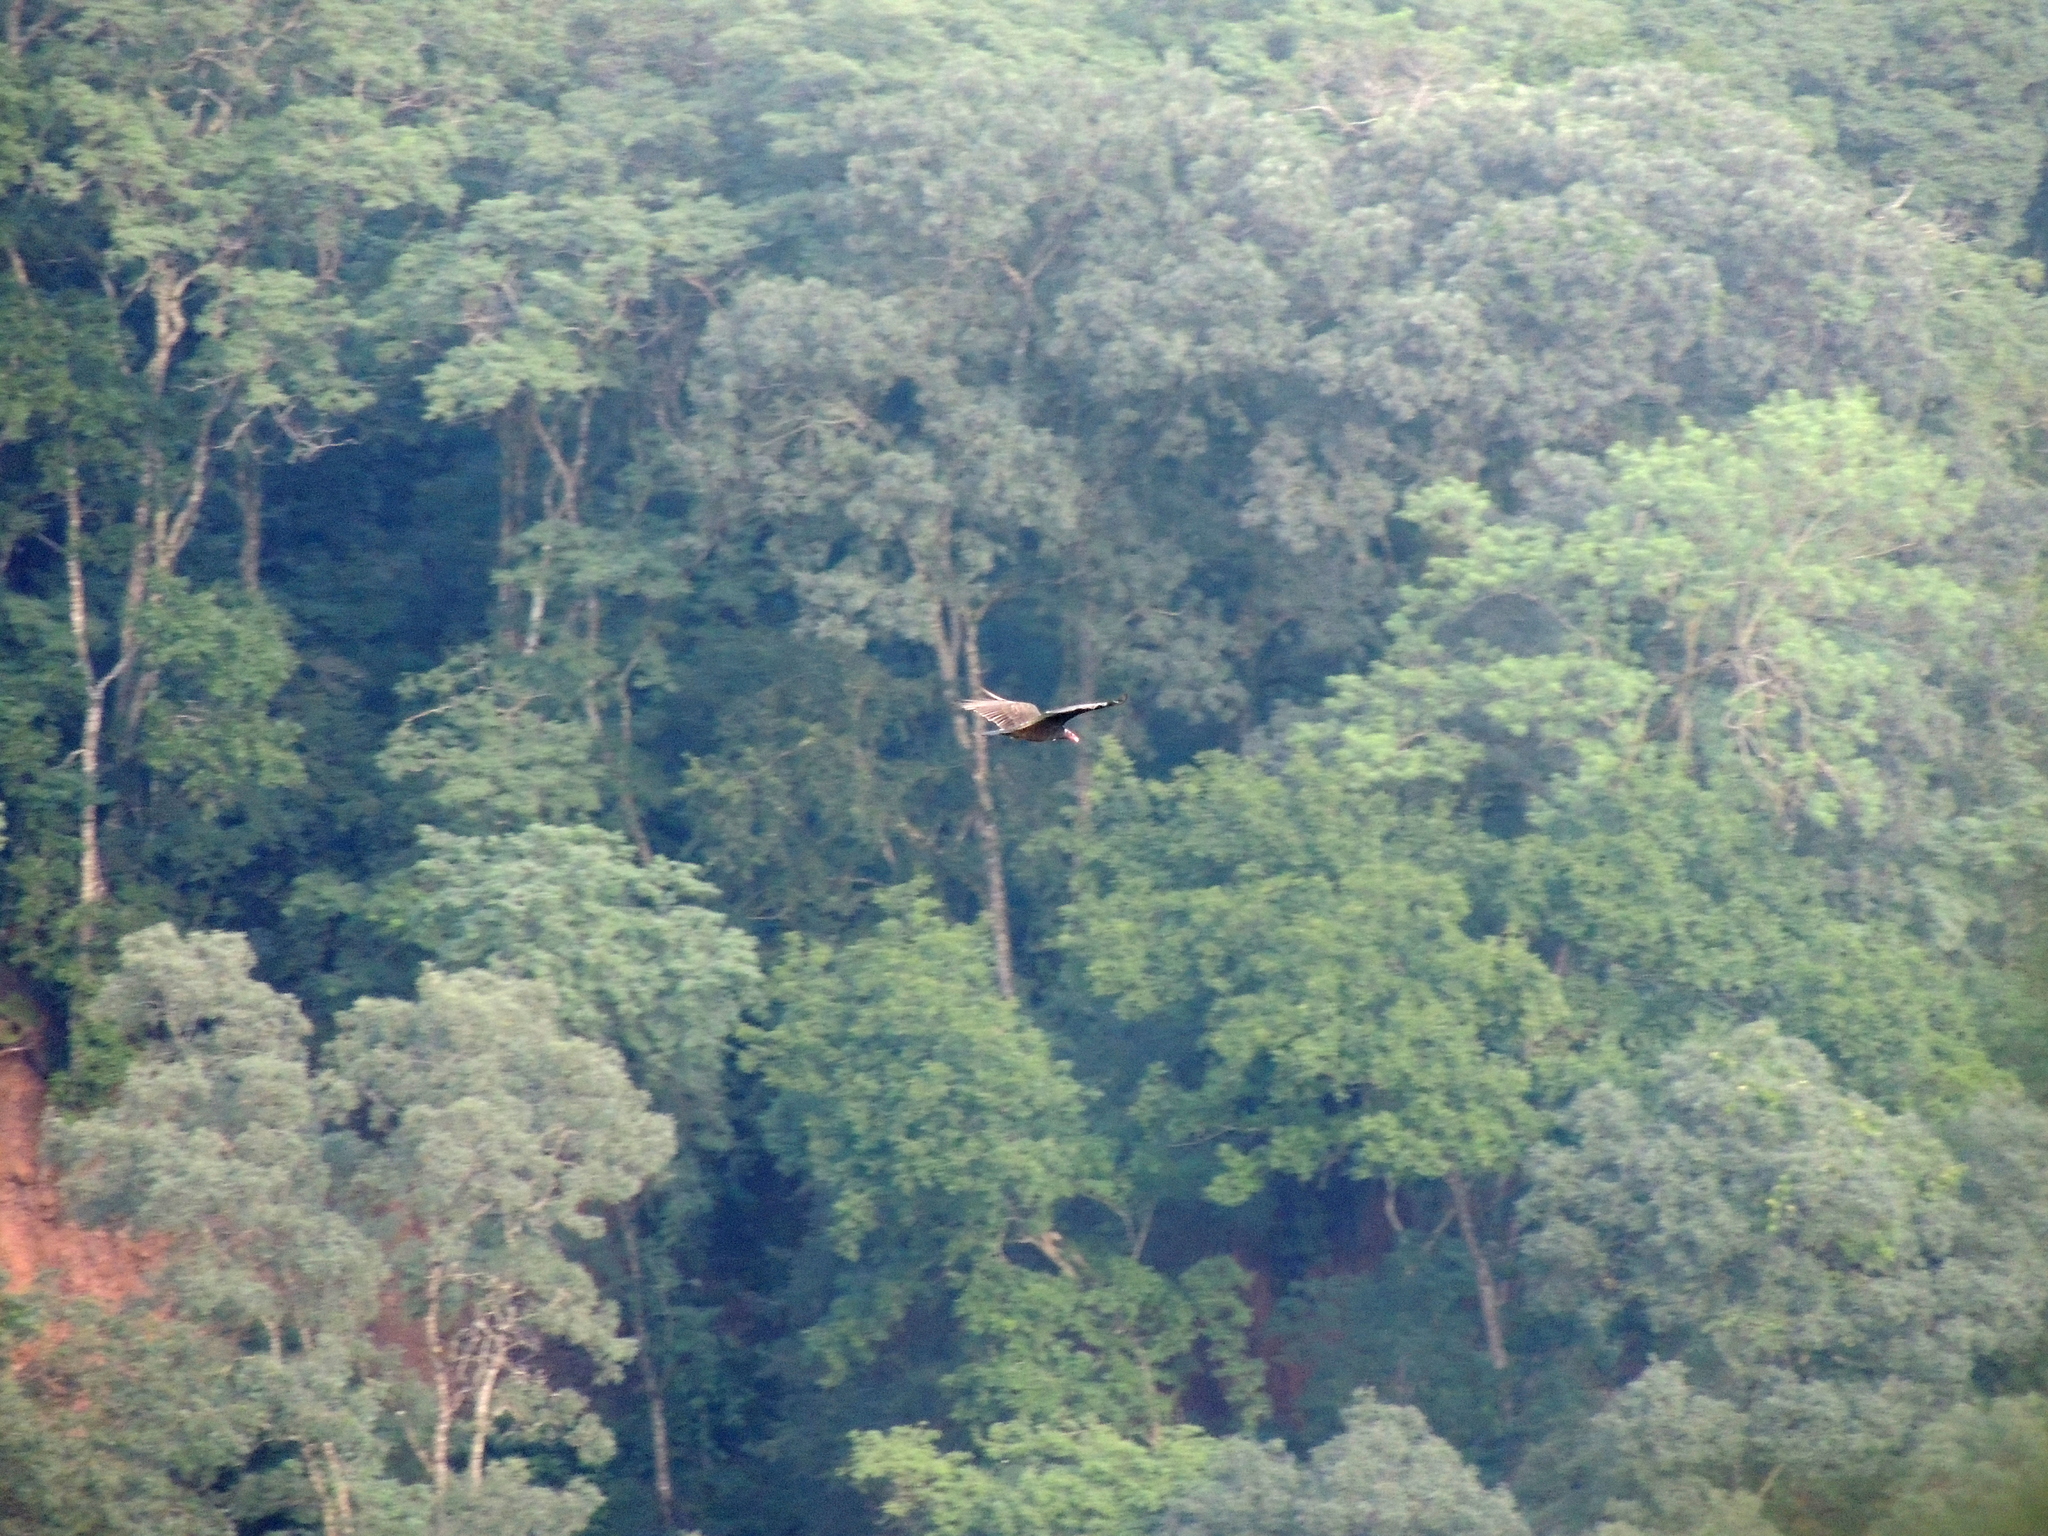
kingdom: Animalia
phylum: Chordata
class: Aves
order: Accipitriformes
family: Cathartidae
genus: Cathartes
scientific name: Cathartes aura
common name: Turkey vulture
